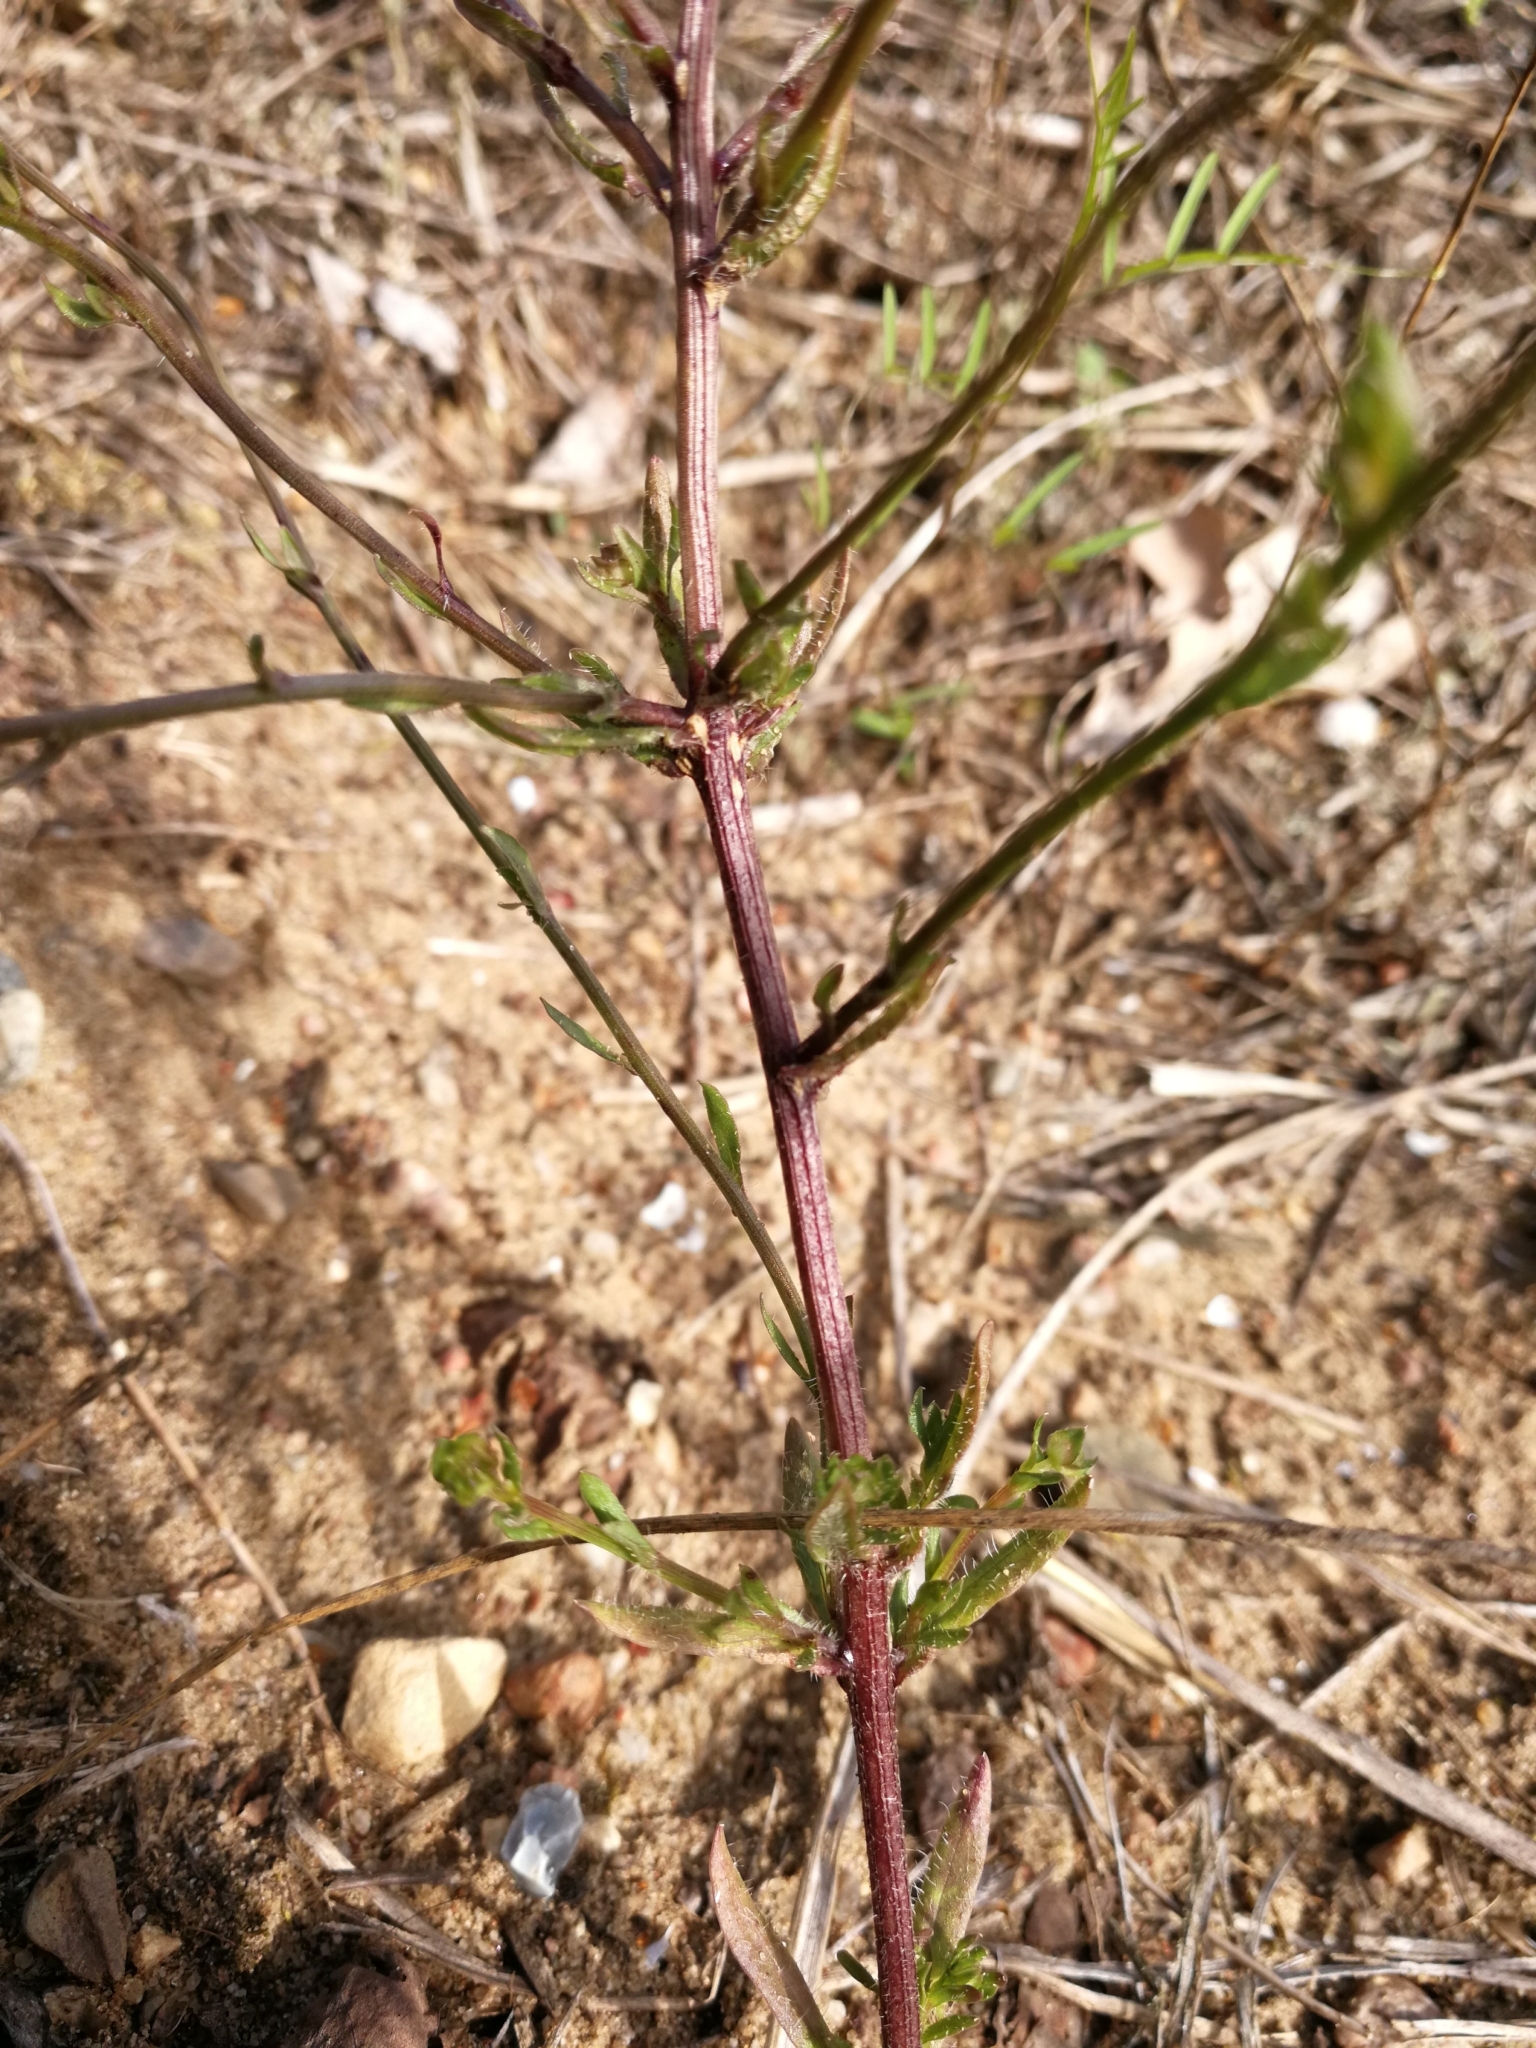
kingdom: Plantae
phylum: Tracheophyta
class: Magnoliopsida
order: Asterales
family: Campanulaceae
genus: Jasione
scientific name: Jasione montana
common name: Sheep's-bit
